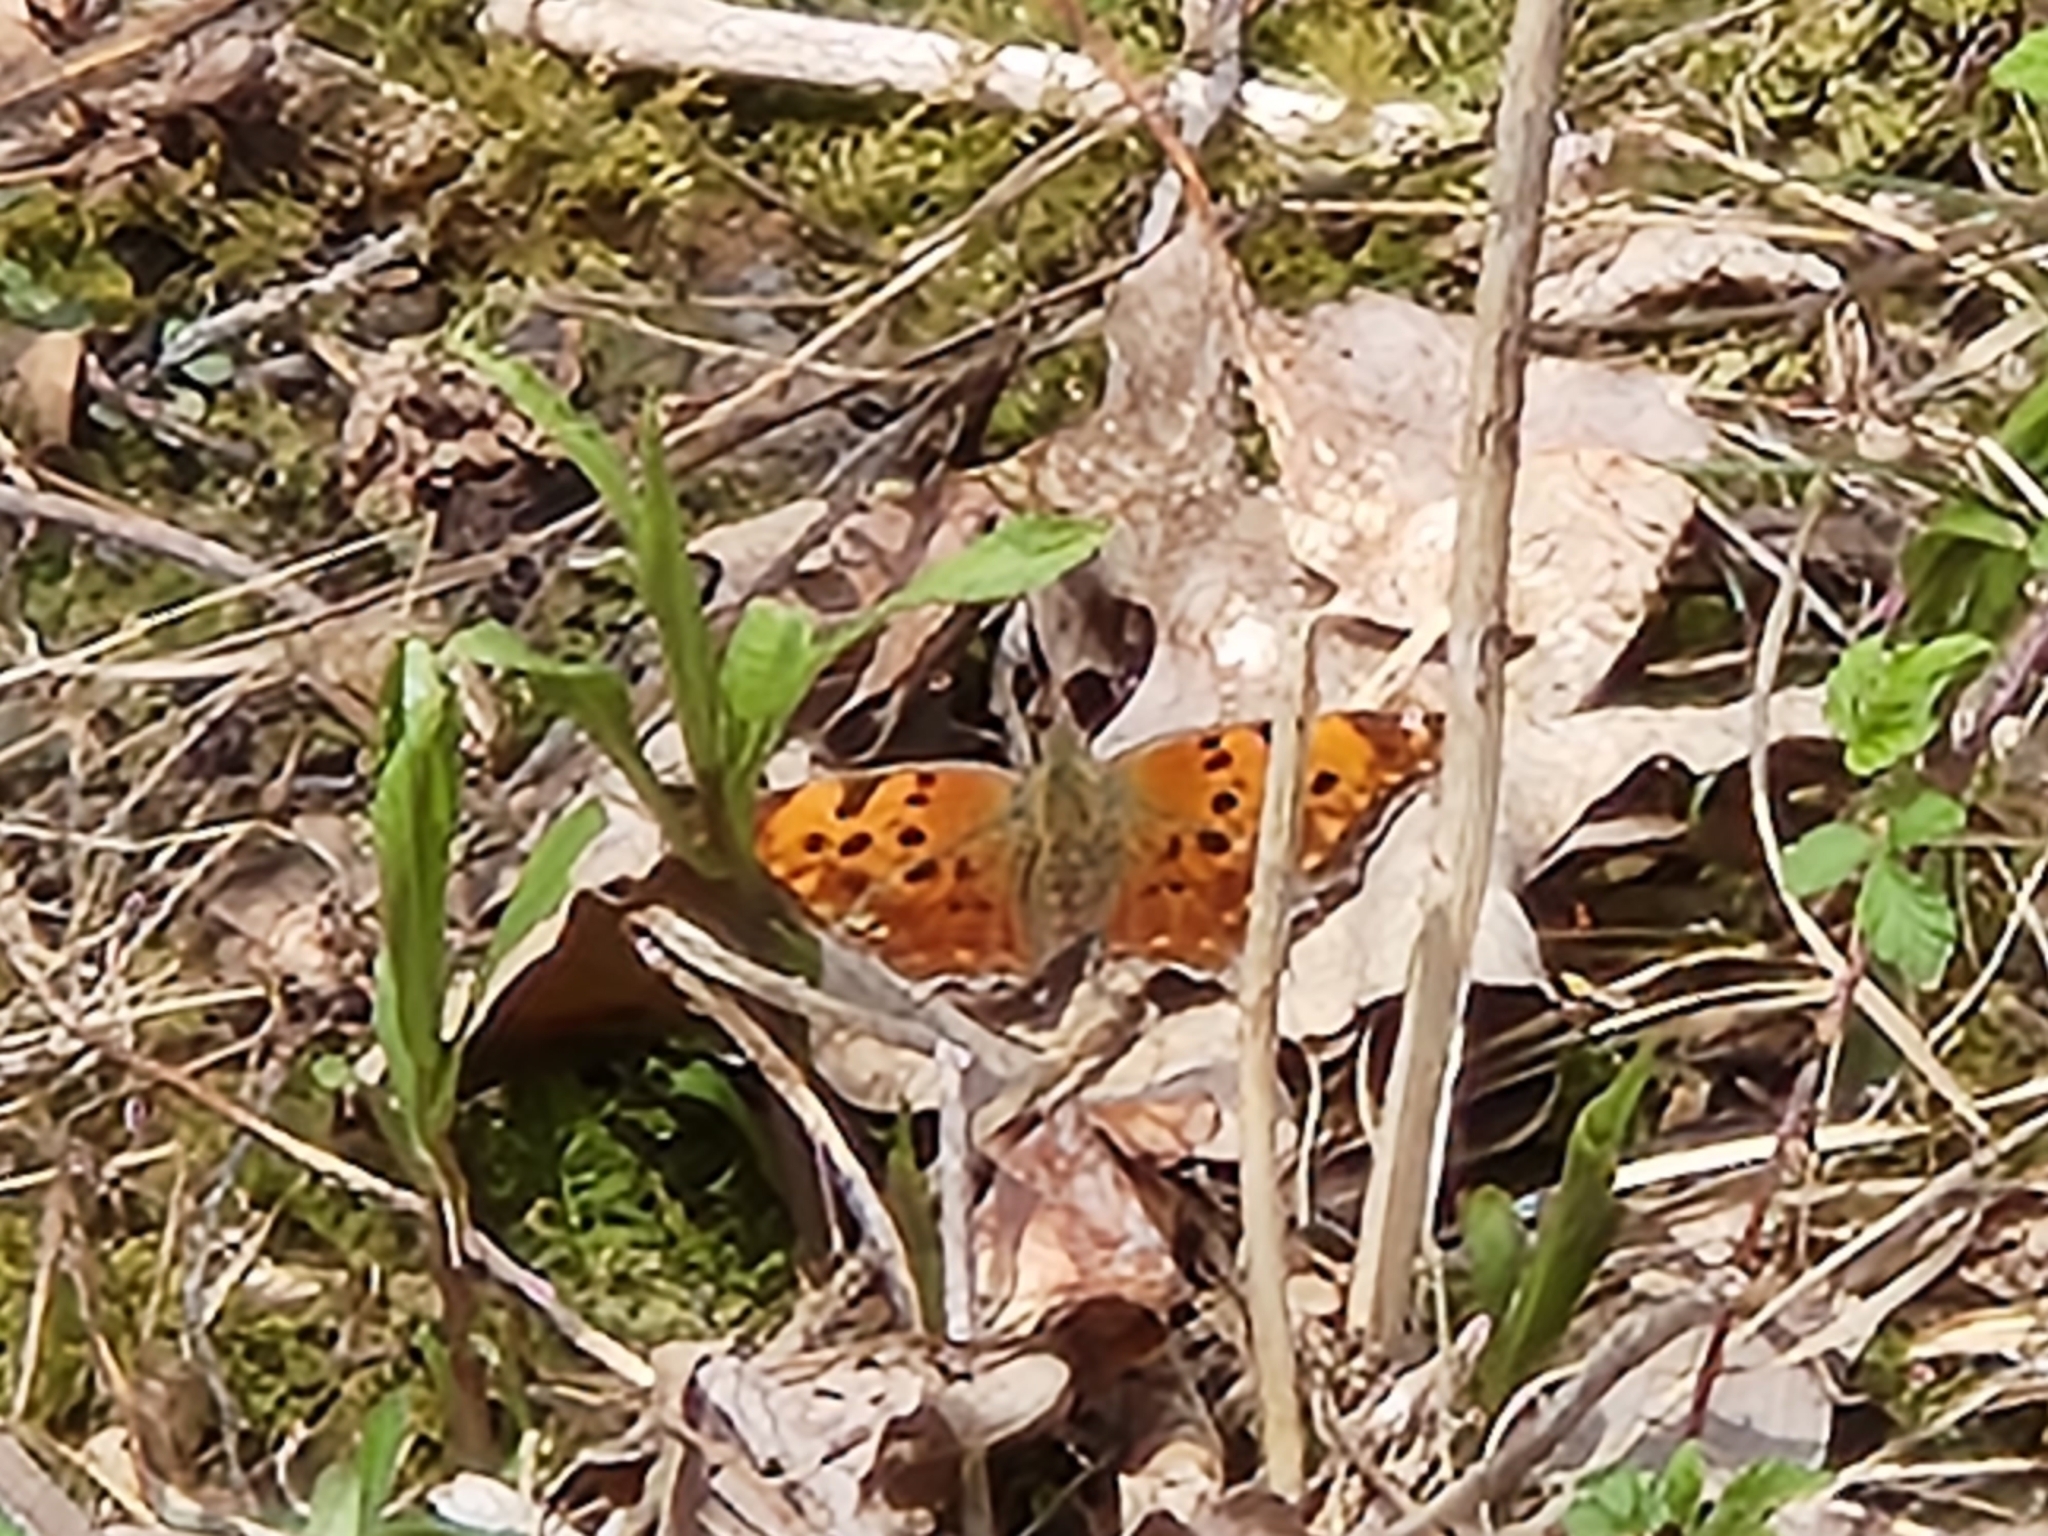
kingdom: Animalia
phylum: Arthropoda
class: Insecta
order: Lepidoptera
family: Nymphalidae
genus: Polygonia
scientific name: Polygonia comma
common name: Eastern comma
